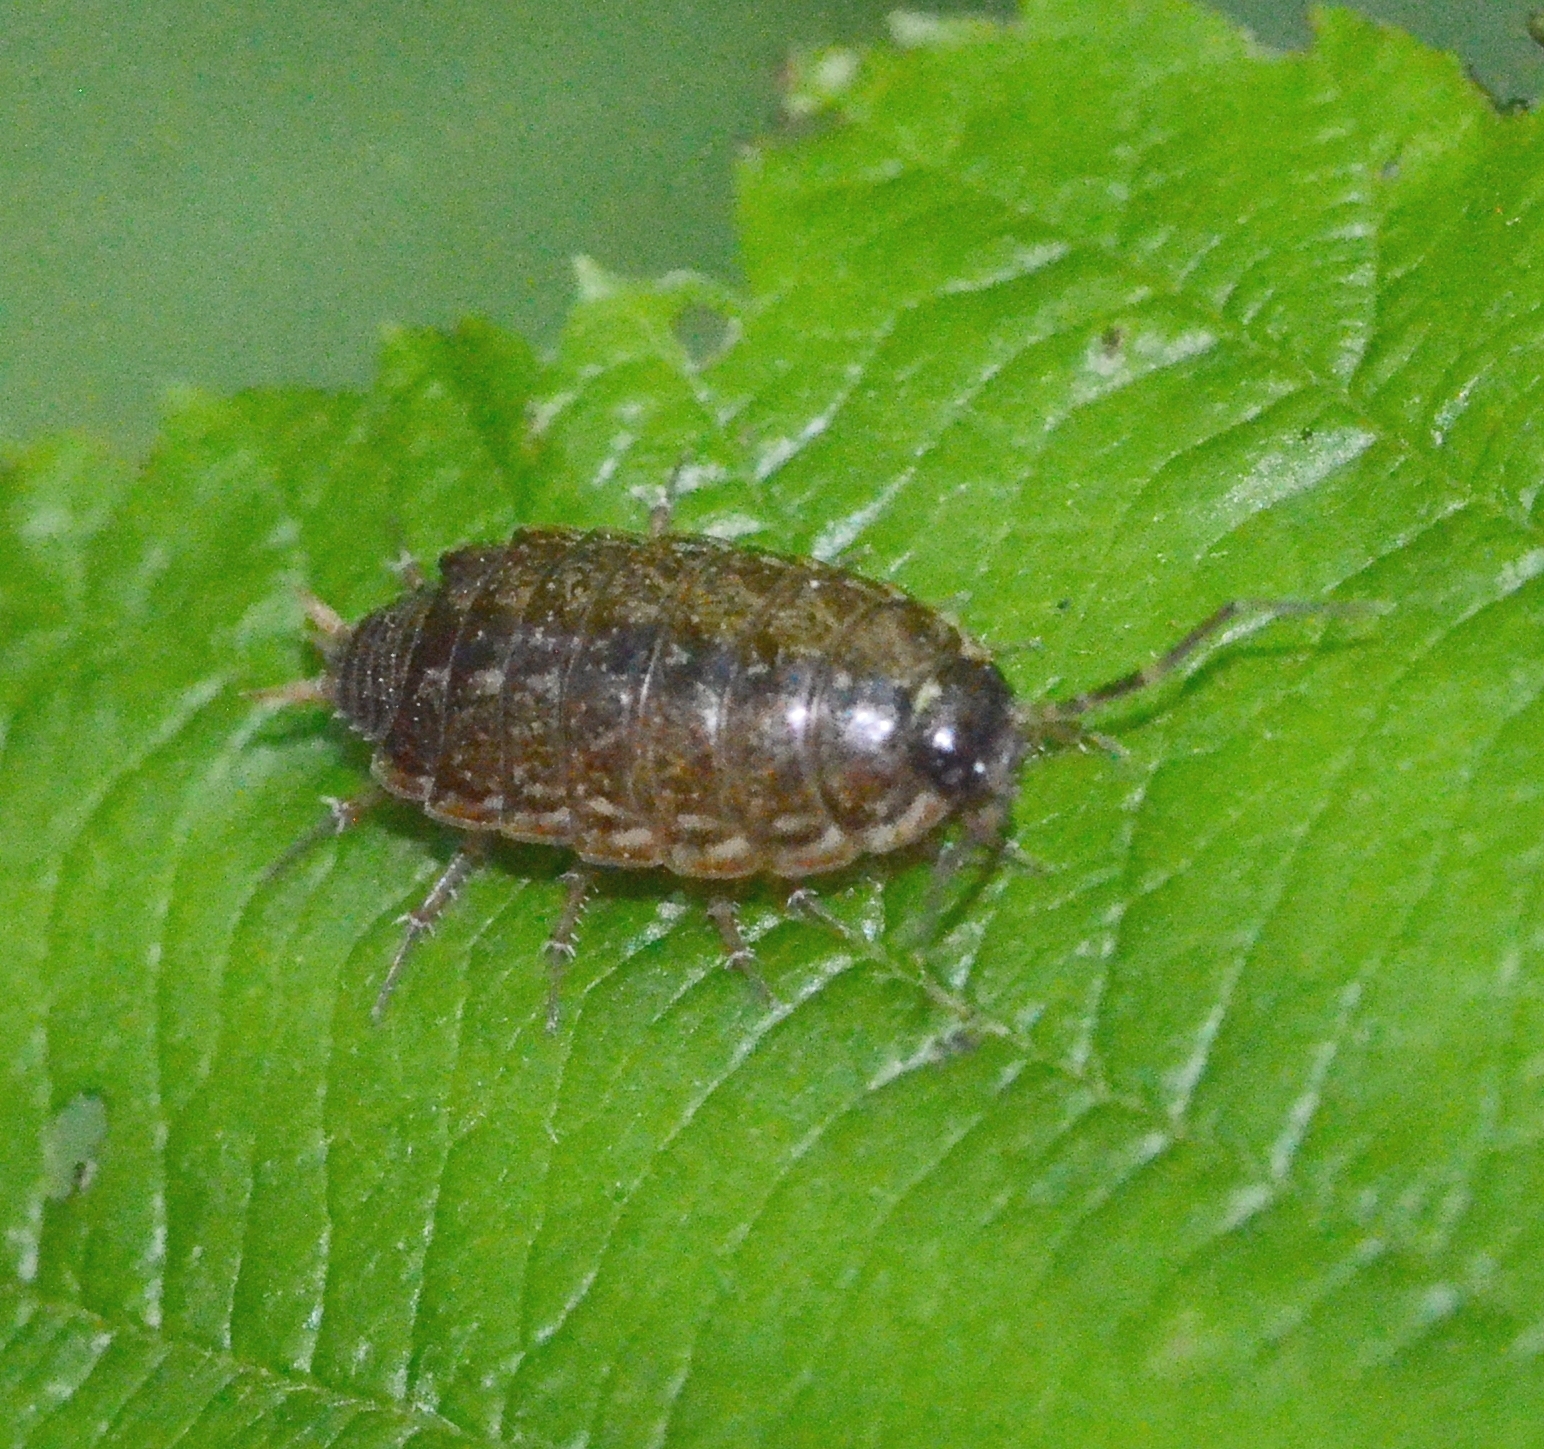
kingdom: Animalia
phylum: Arthropoda
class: Malacostraca
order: Isopoda
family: Philosciidae
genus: Philoscia
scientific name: Philoscia muscorum
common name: Common striped woodlouse
